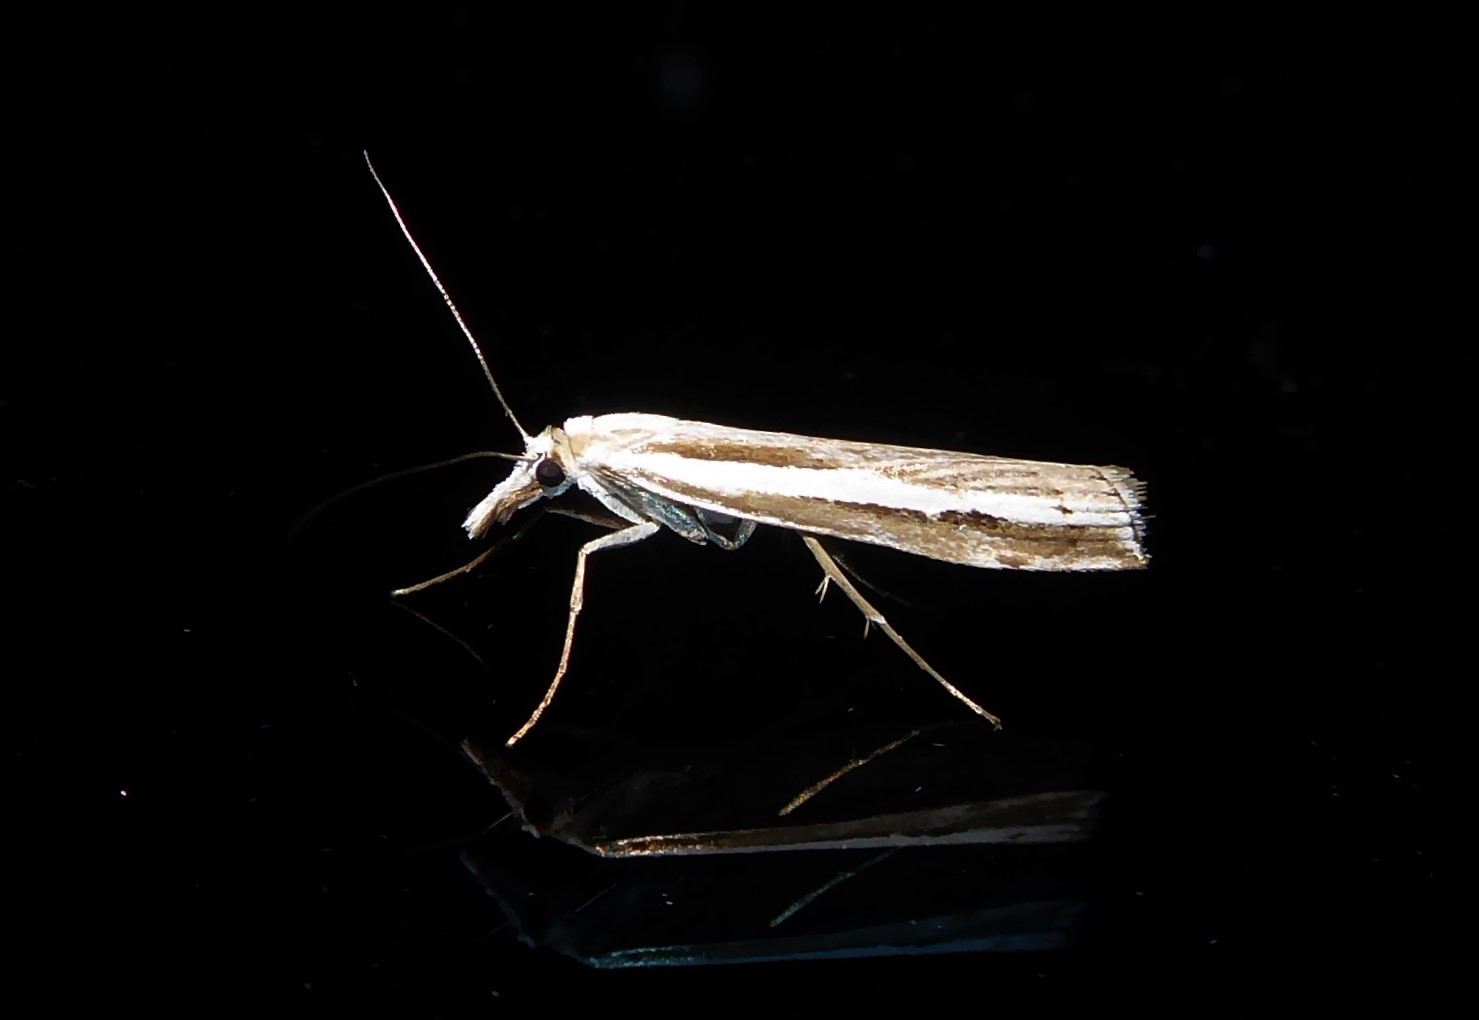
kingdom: Animalia
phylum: Arthropoda
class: Insecta
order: Lepidoptera
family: Crambidae
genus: Orocrambus
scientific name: Orocrambus vittellus
